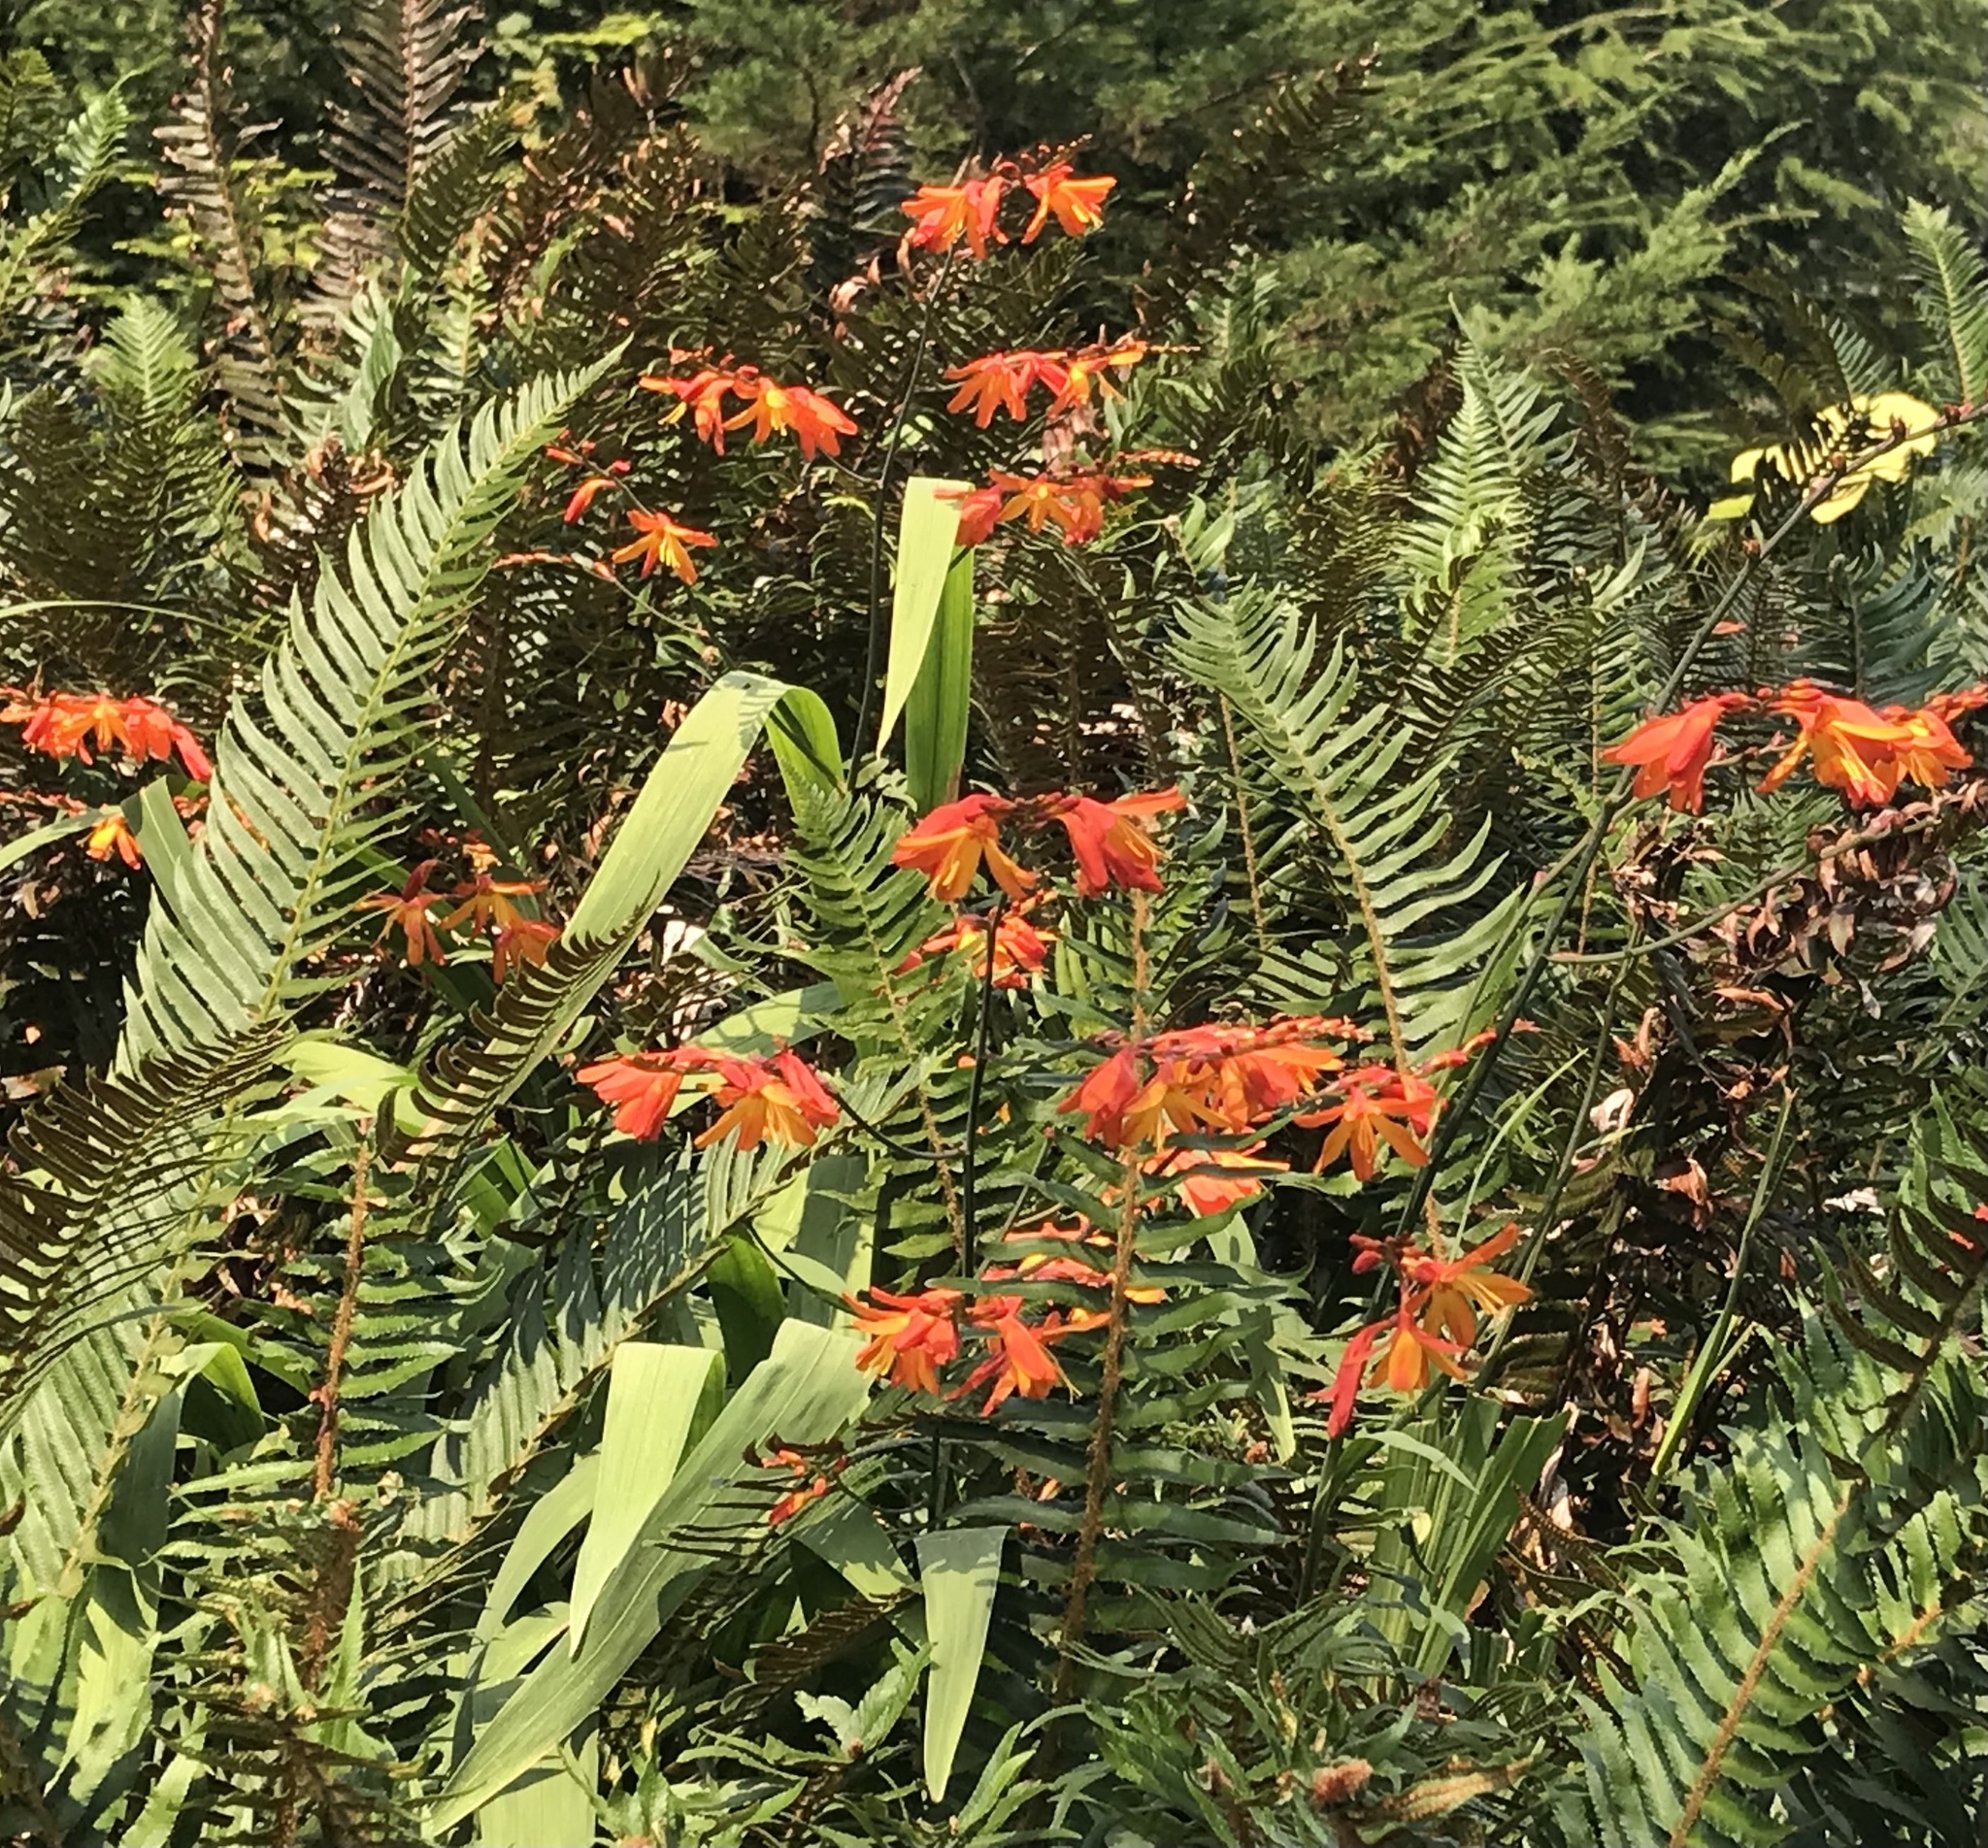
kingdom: Plantae
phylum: Tracheophyta
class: Liliopsida
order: Asparagales
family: Iridaceae
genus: Crocosmia
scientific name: Crocosmia crocosmiiflora
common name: Montbretia
